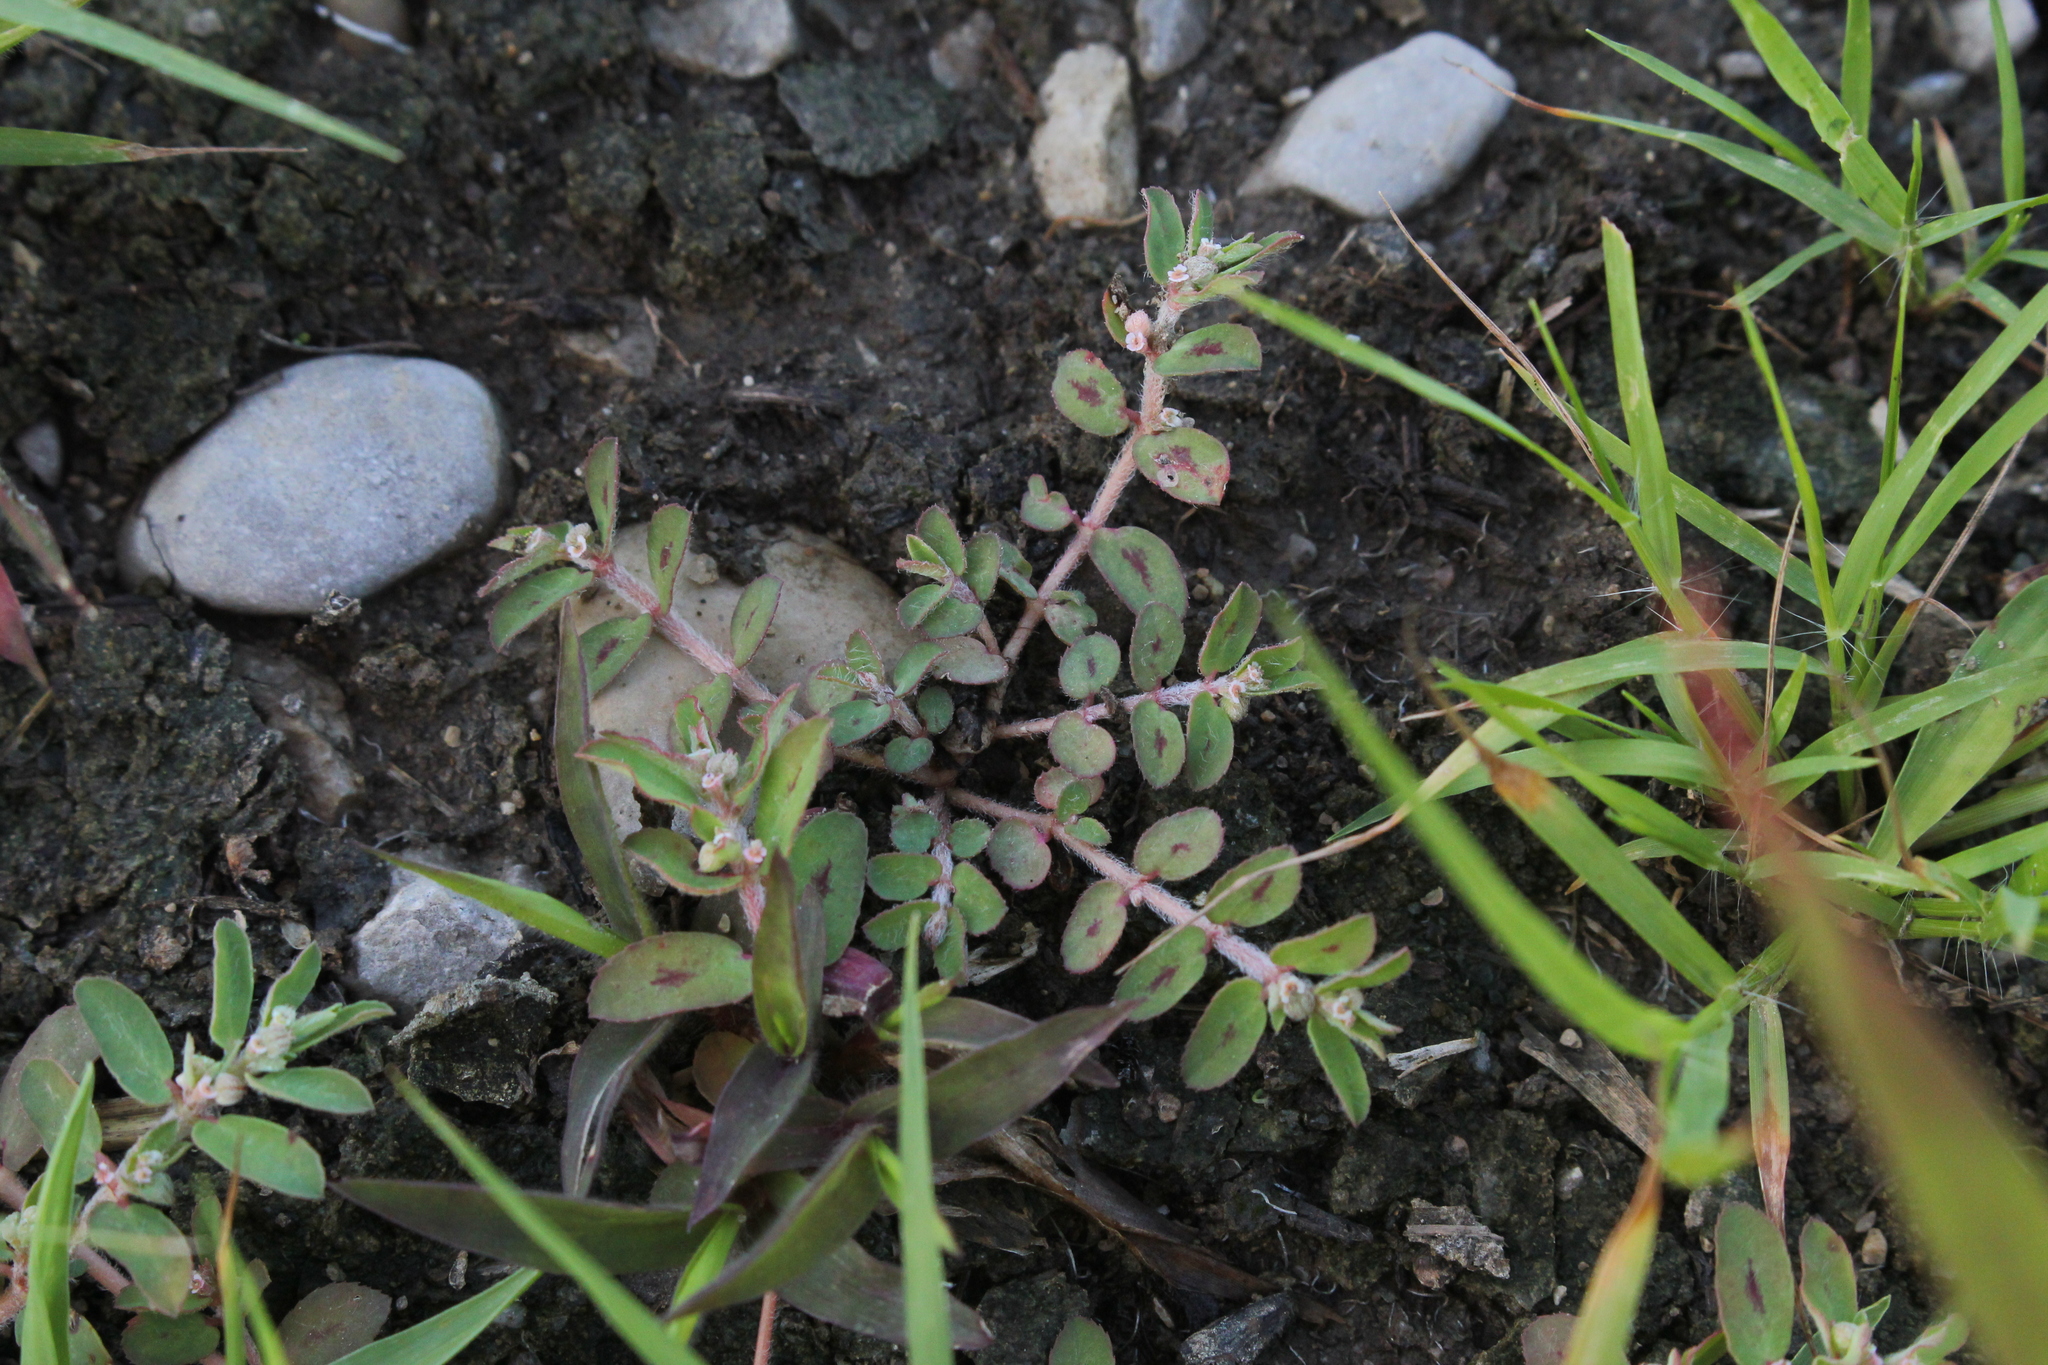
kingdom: Plantae
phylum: Tracheophyta
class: Magnoliopsida
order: Malpighiales
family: Euphorbiaceae
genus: Euphorbia
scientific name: Euphorbia maculata
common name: Spotted spurge
